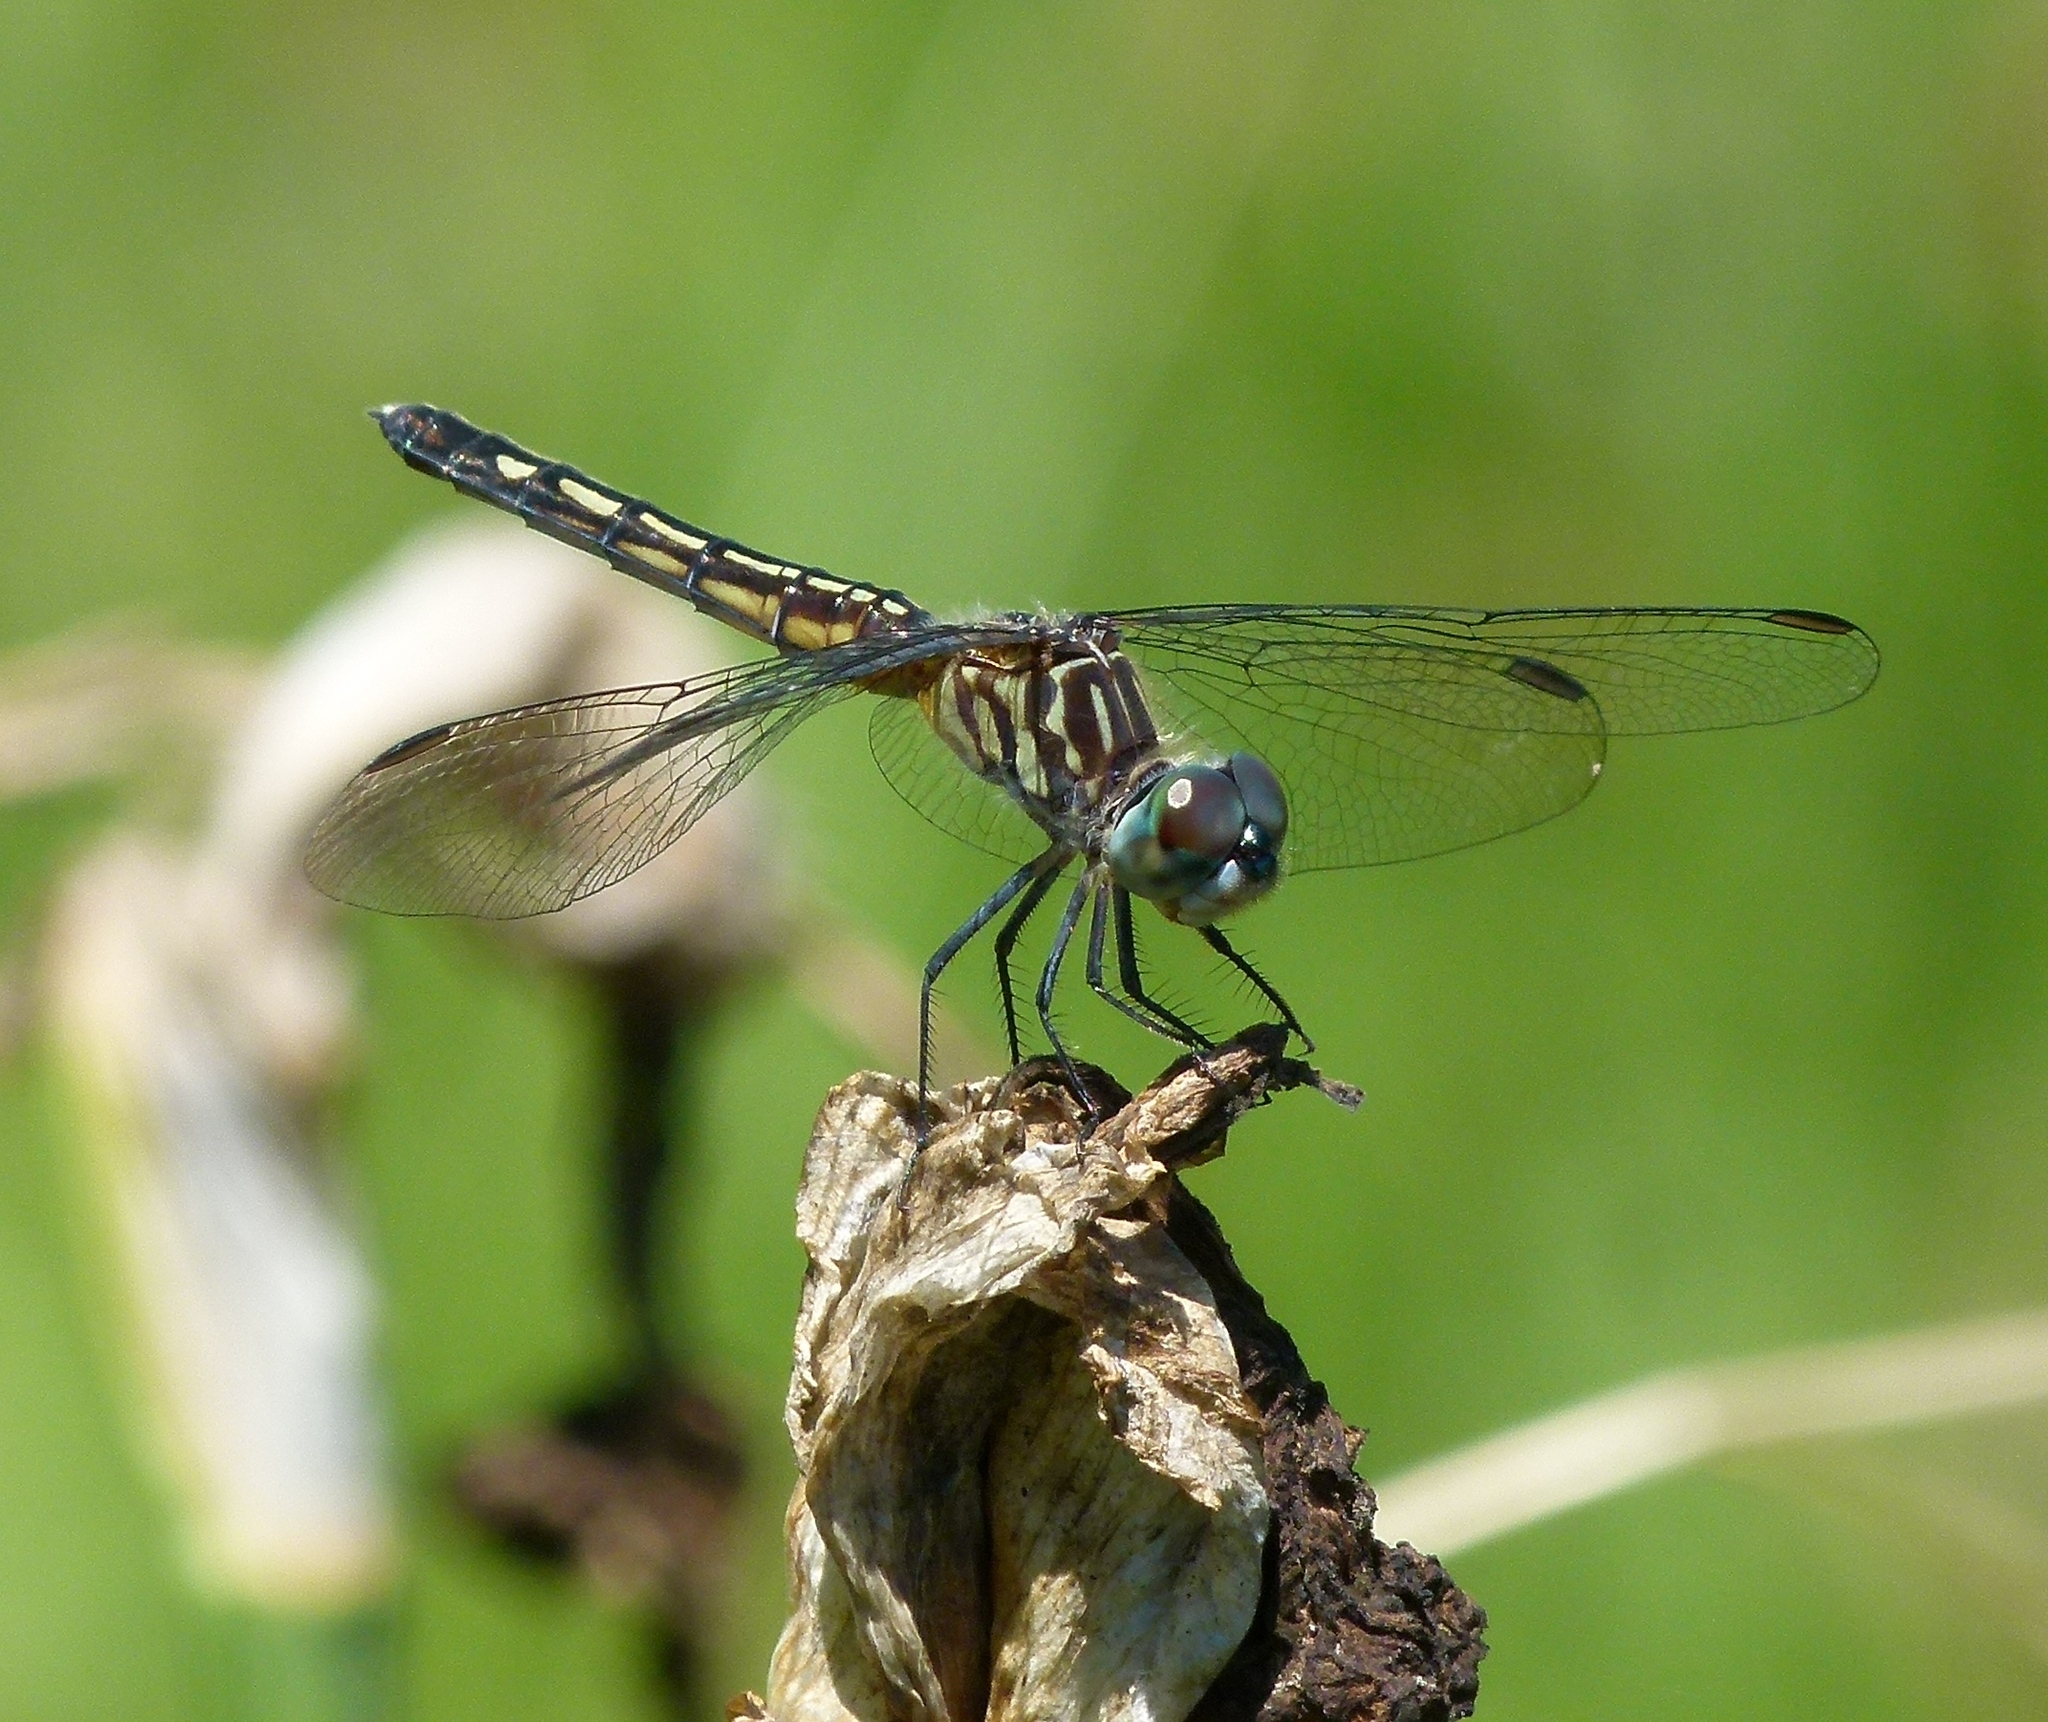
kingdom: Animalia
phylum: Arthropoda
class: Insecta
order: Odonata
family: Libellulidae
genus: Pachydiplax
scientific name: Pachydiplax longipennis
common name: Blue dasher
